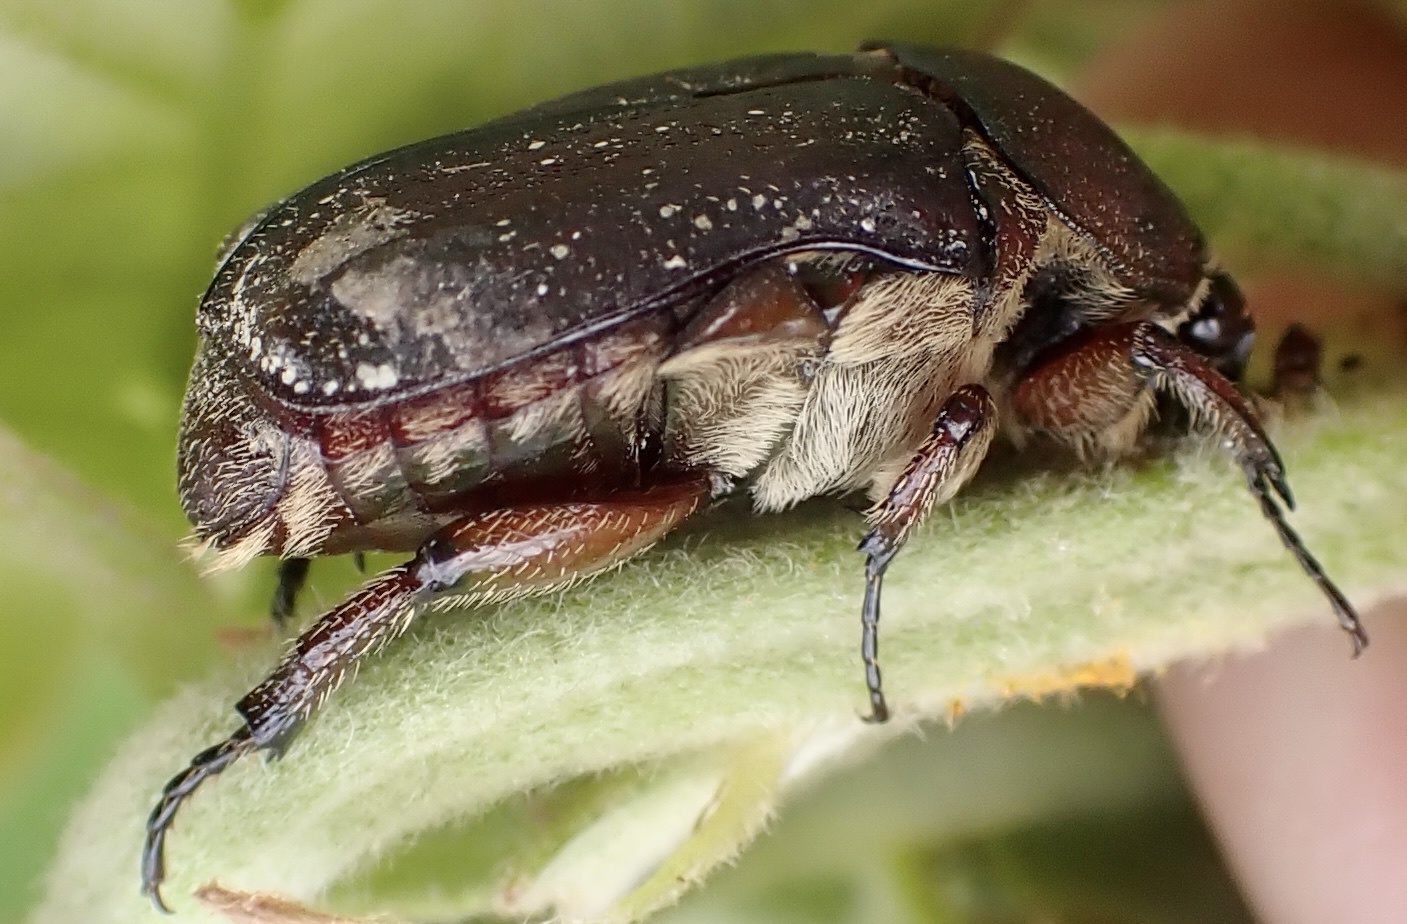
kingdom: Animalia
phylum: Arthropoda
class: Insecta
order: Coleoptera
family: Scarabaeidae
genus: Euphoria
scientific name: Euphoria sepulcralis
